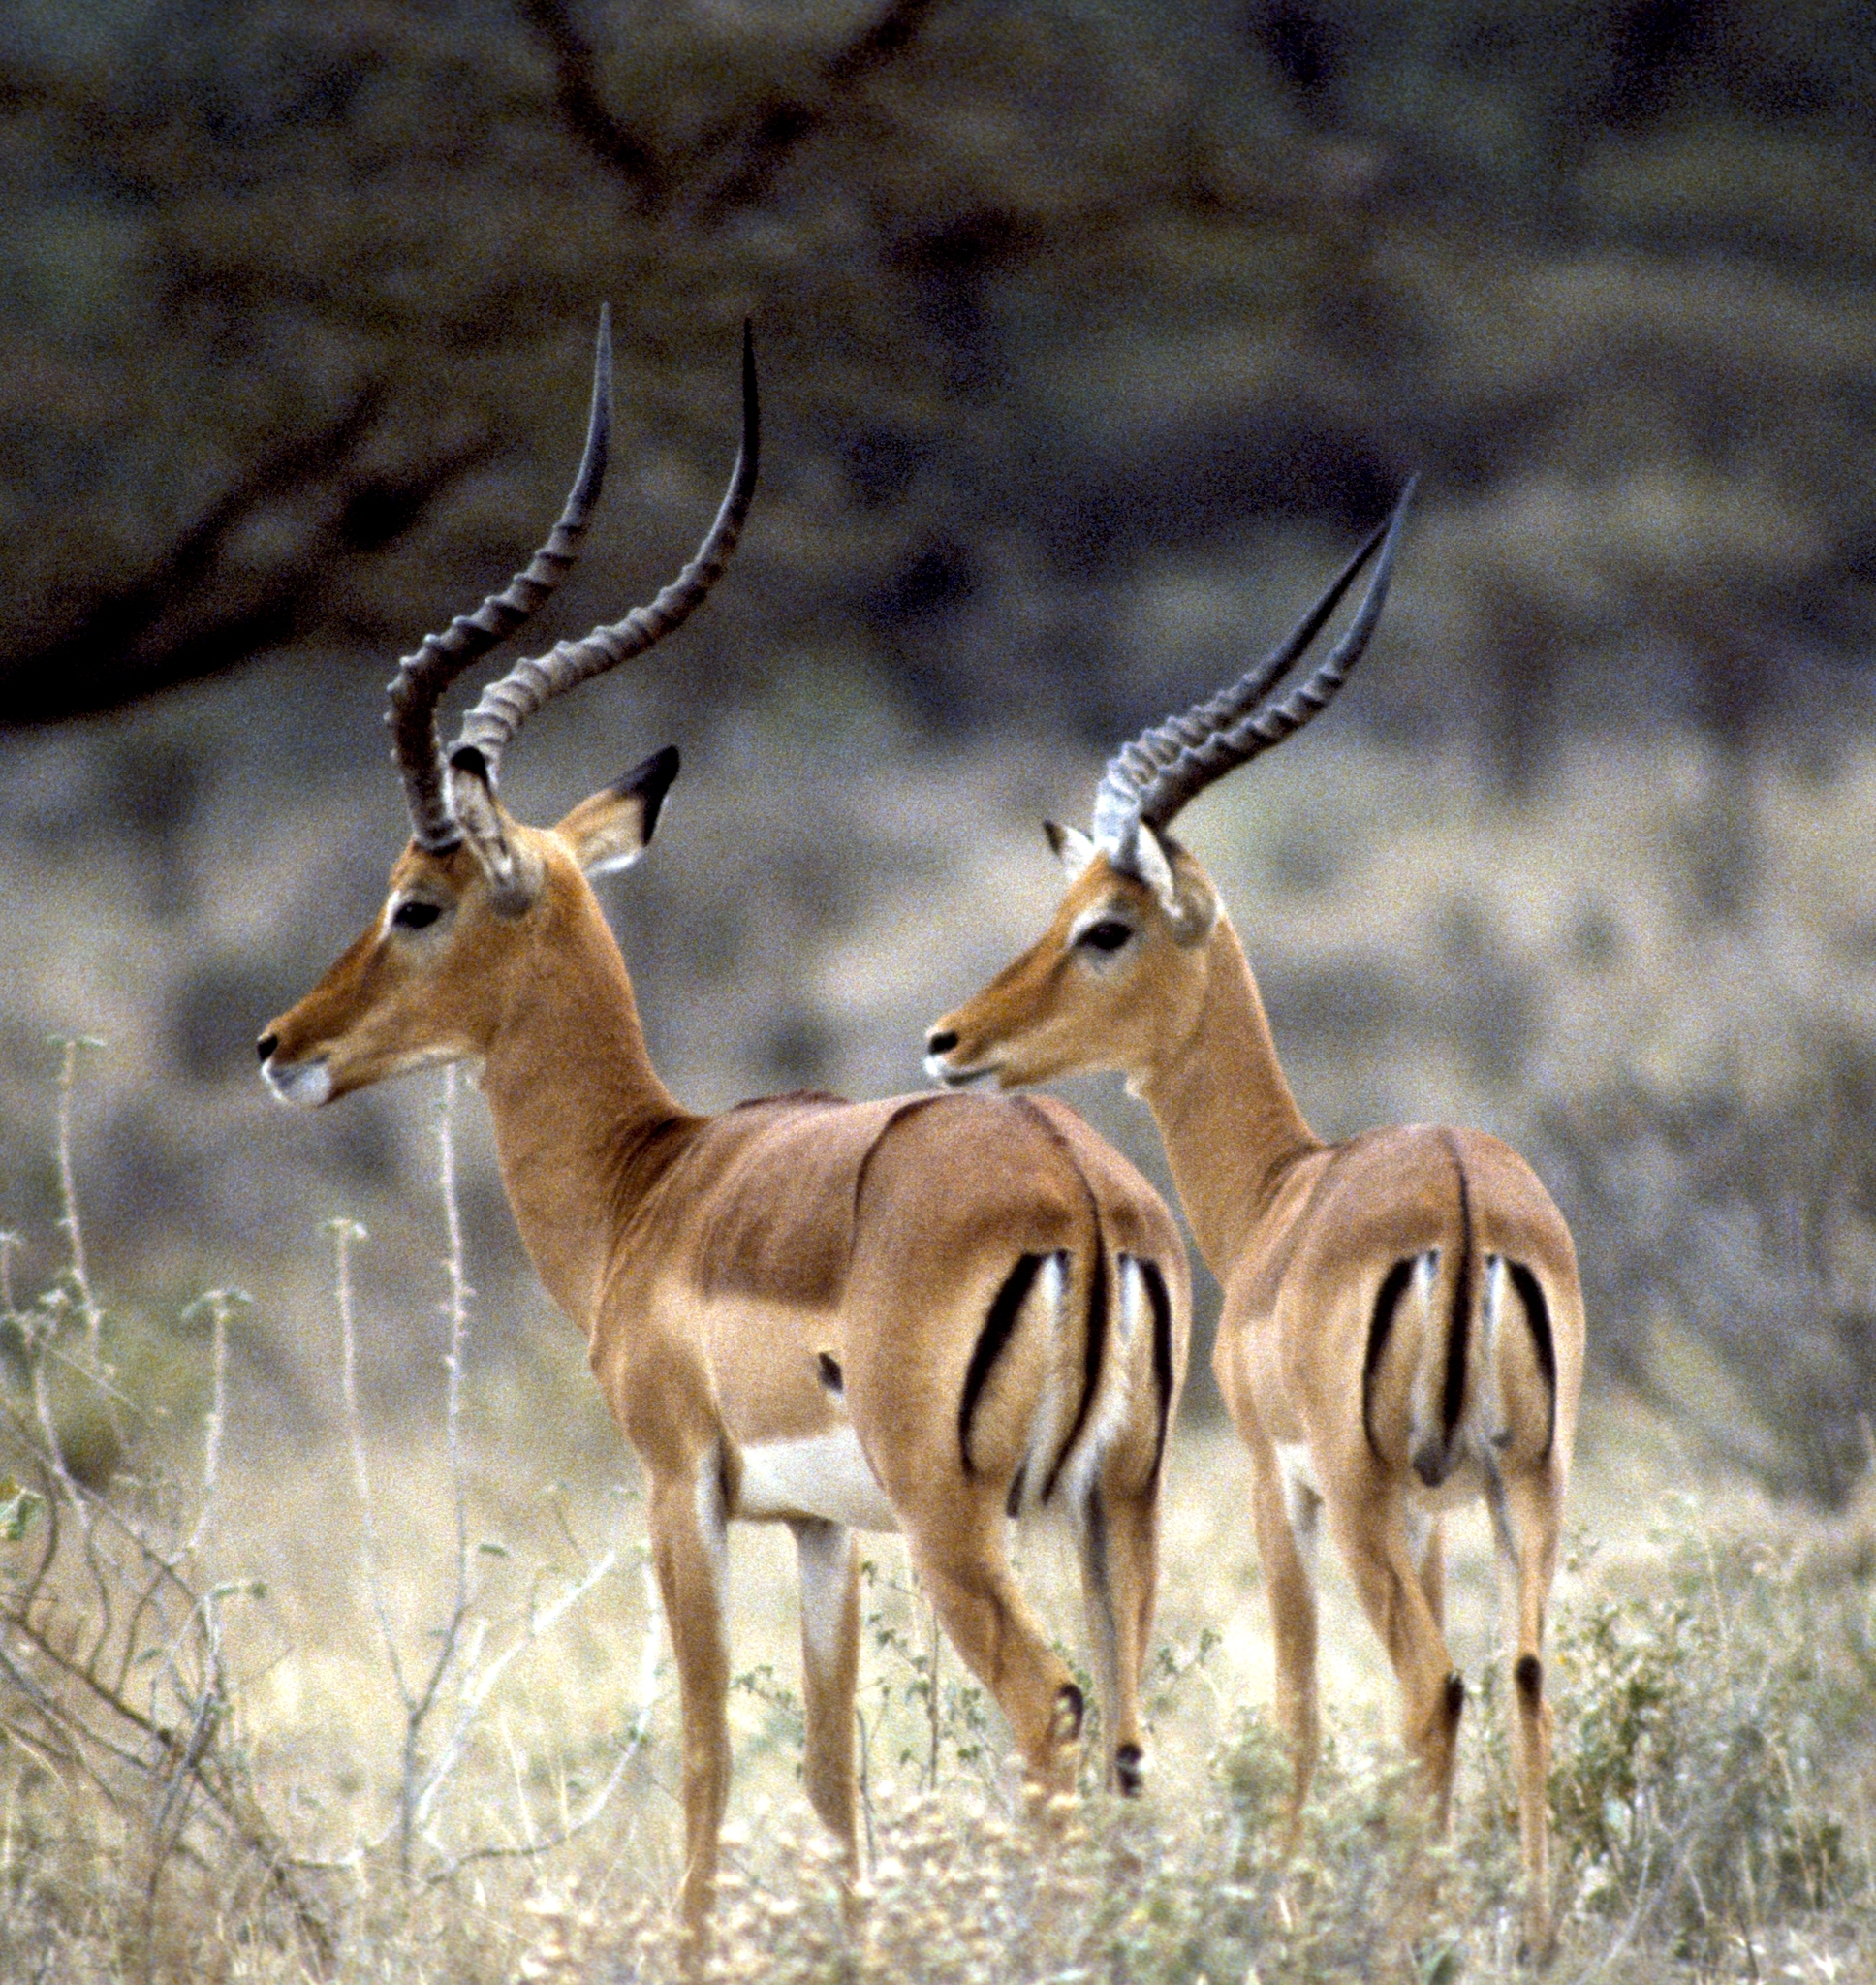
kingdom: Animalia
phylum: Chordata
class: Mammalia
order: Artiodactyla
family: Bovidae
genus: Aepyceros
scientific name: Aepyceros melampus
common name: Impala
